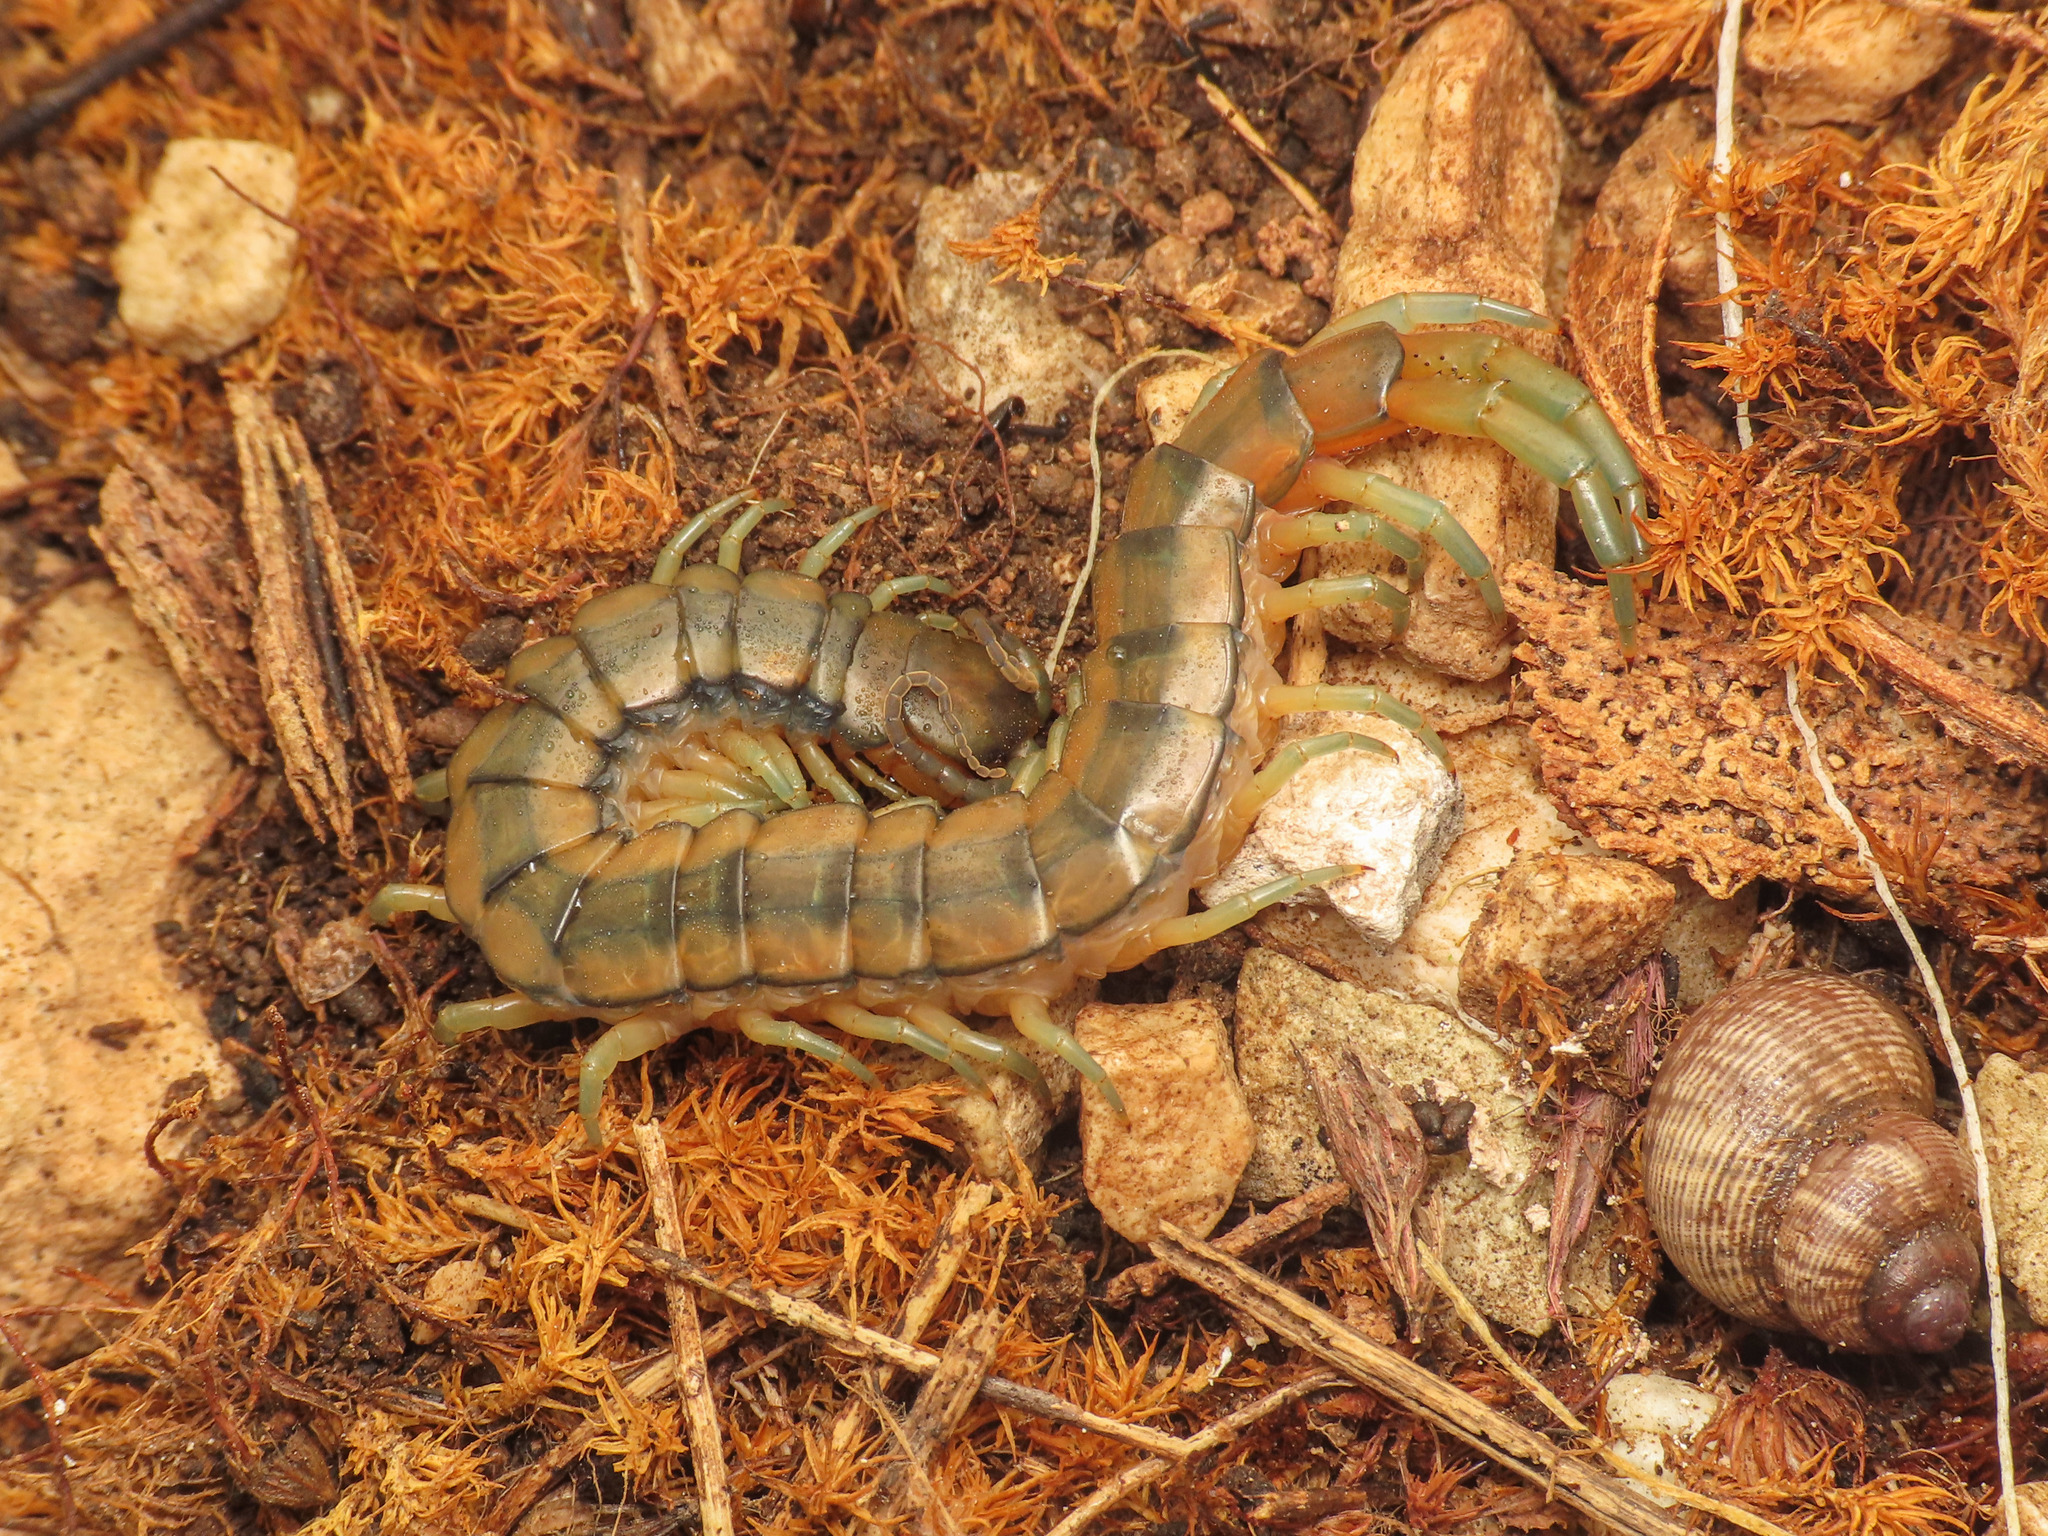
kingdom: Animalia
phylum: Arthropoda
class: Chilopoda
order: Scolopendromorpha
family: Scolopendridae
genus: Scolopendra
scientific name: Scolopendra cingulata
